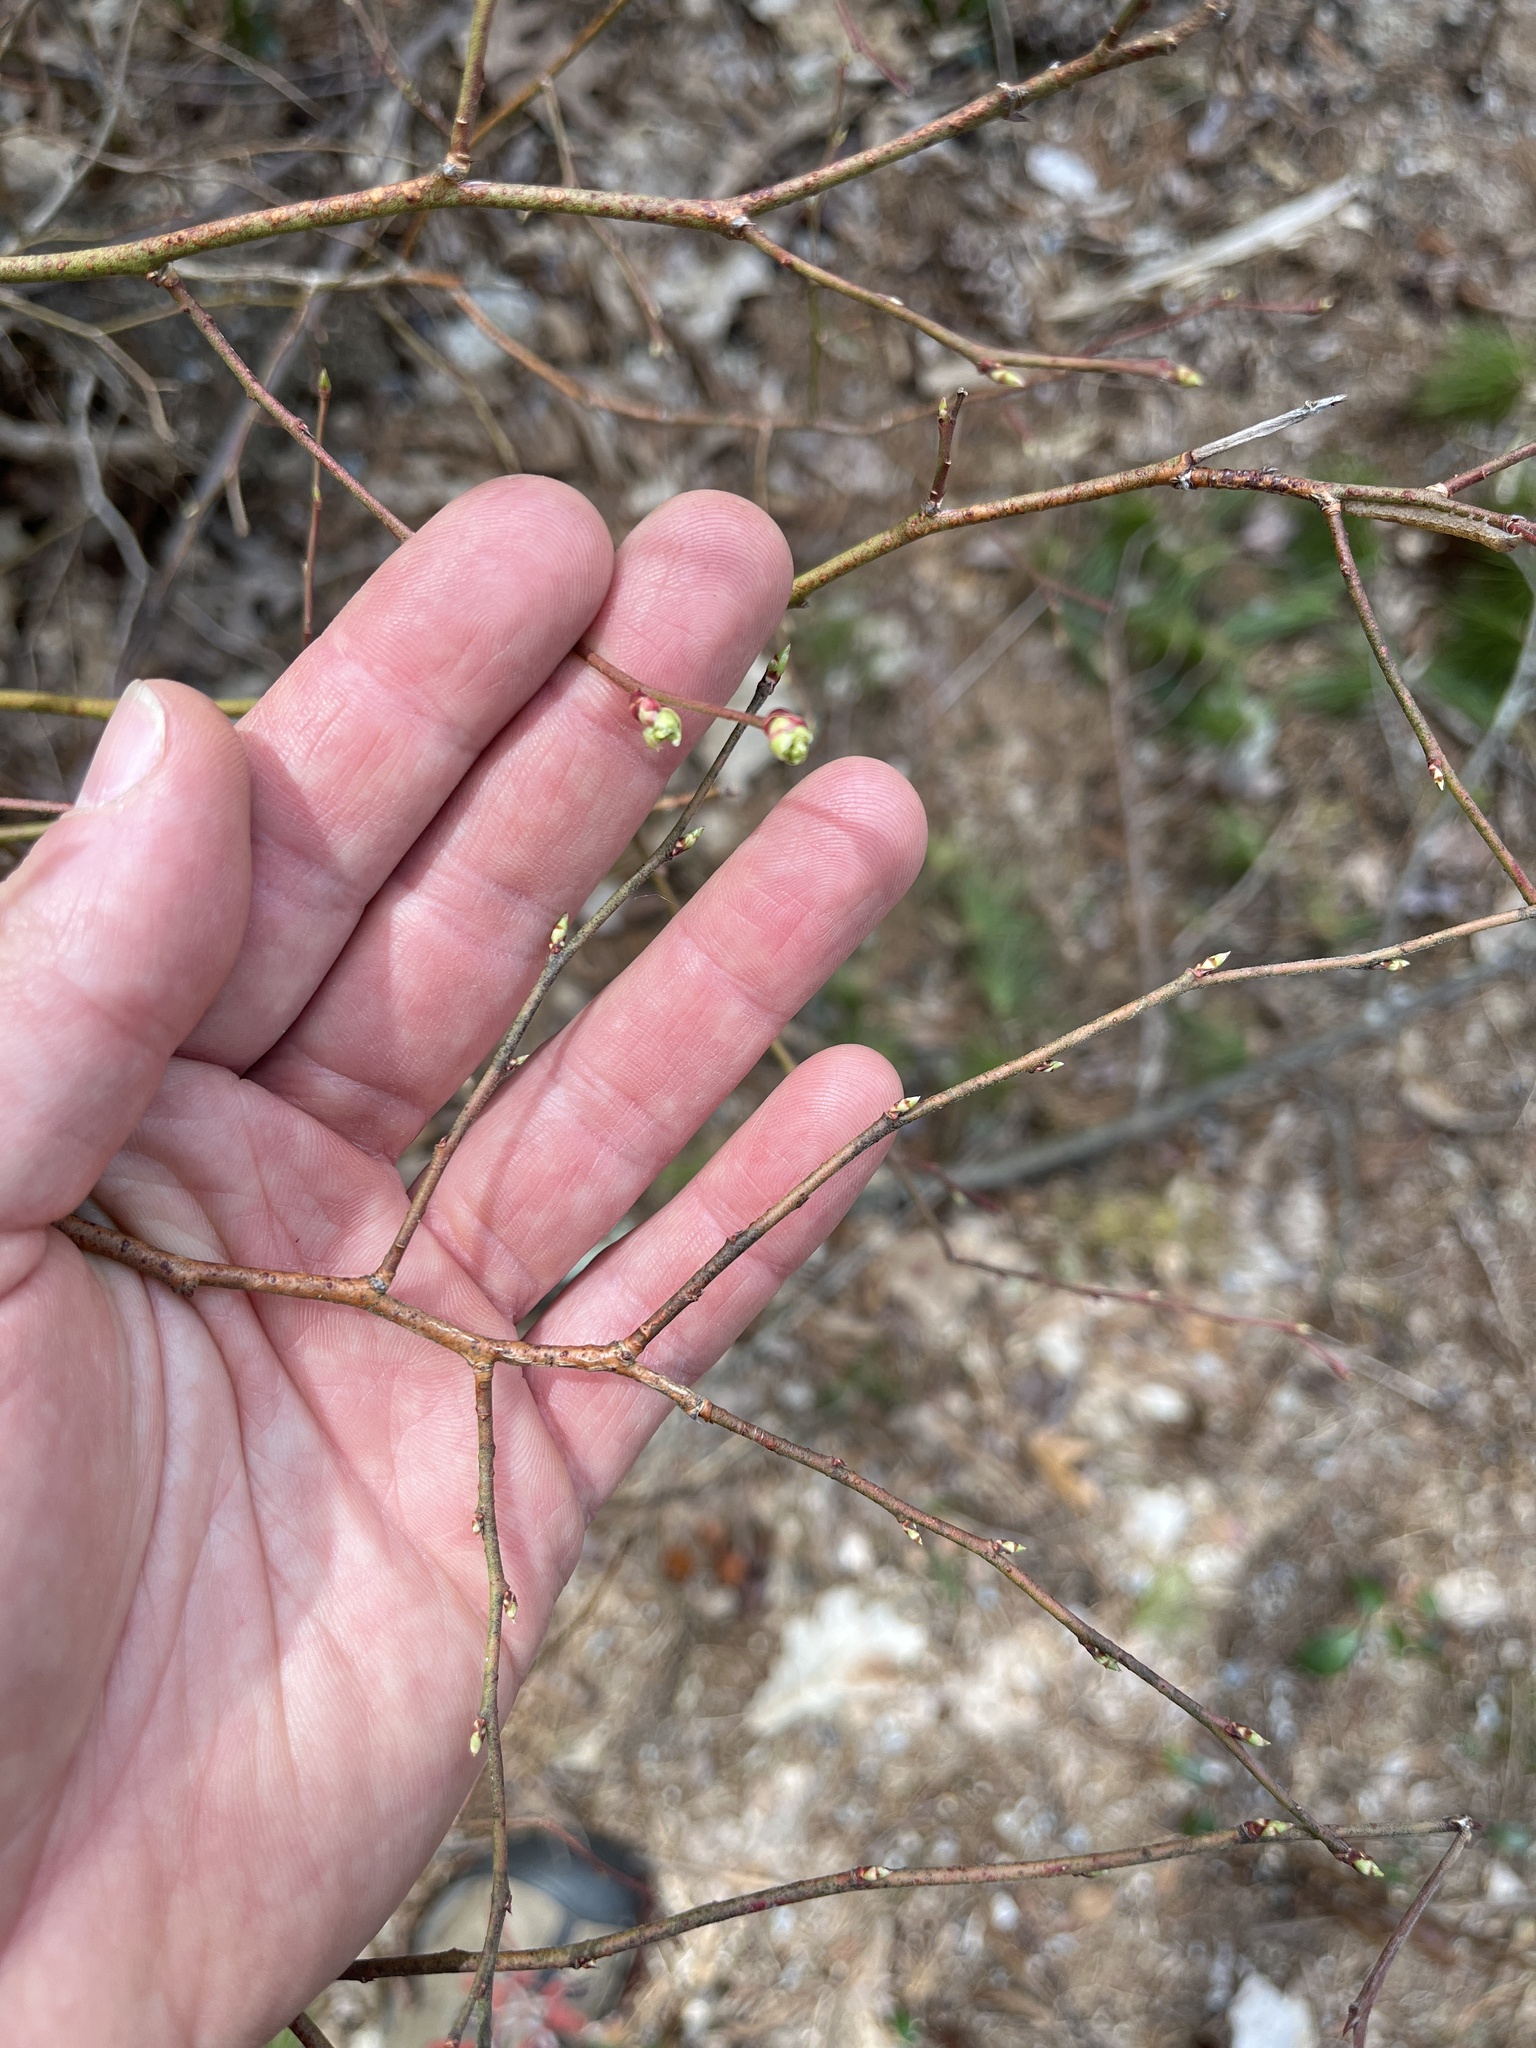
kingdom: Plantae
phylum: Tracheophyta
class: Magnoliopsida
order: Ericales
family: Ericaceae
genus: Vaccinium
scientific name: Vaccinium corymbosum
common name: Blueberry
